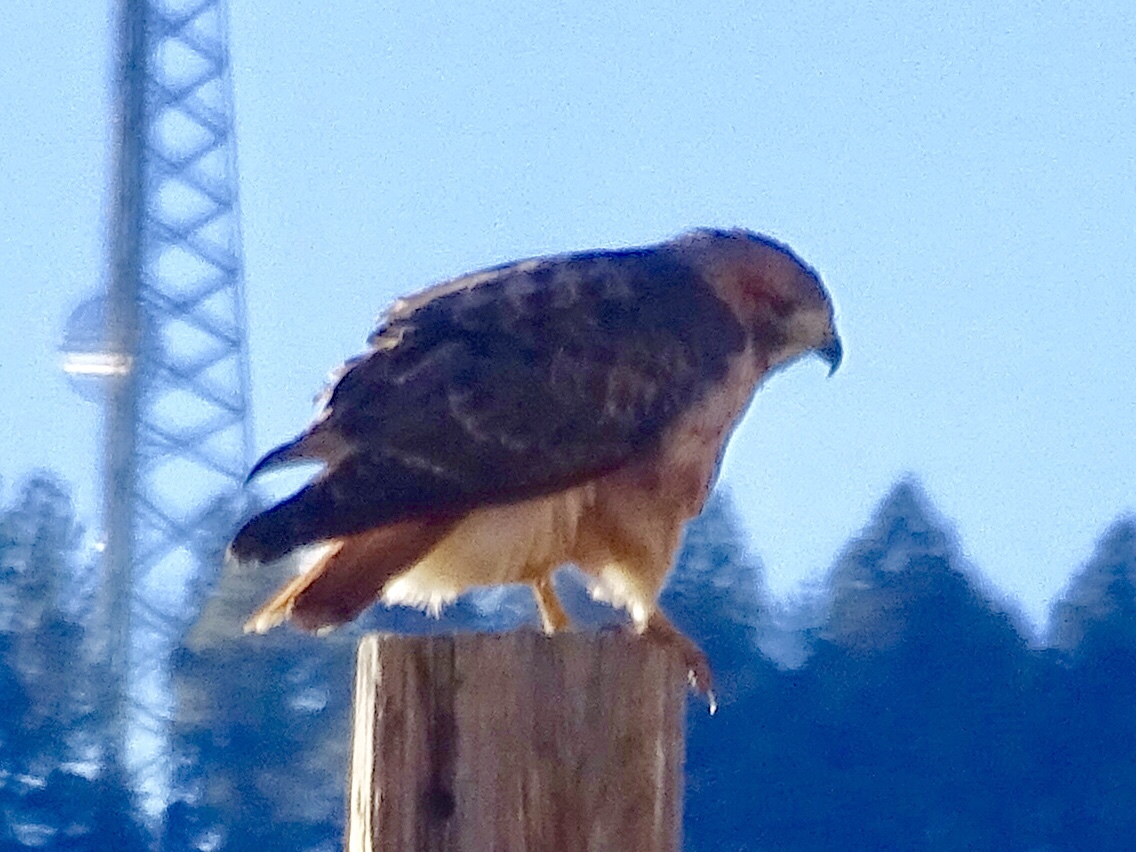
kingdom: Animalia
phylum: Chordata
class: Aves
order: Accipitriformes
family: Accipitridae
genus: Buteo
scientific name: Buteo jamaicensis
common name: Red-tailed hawk
